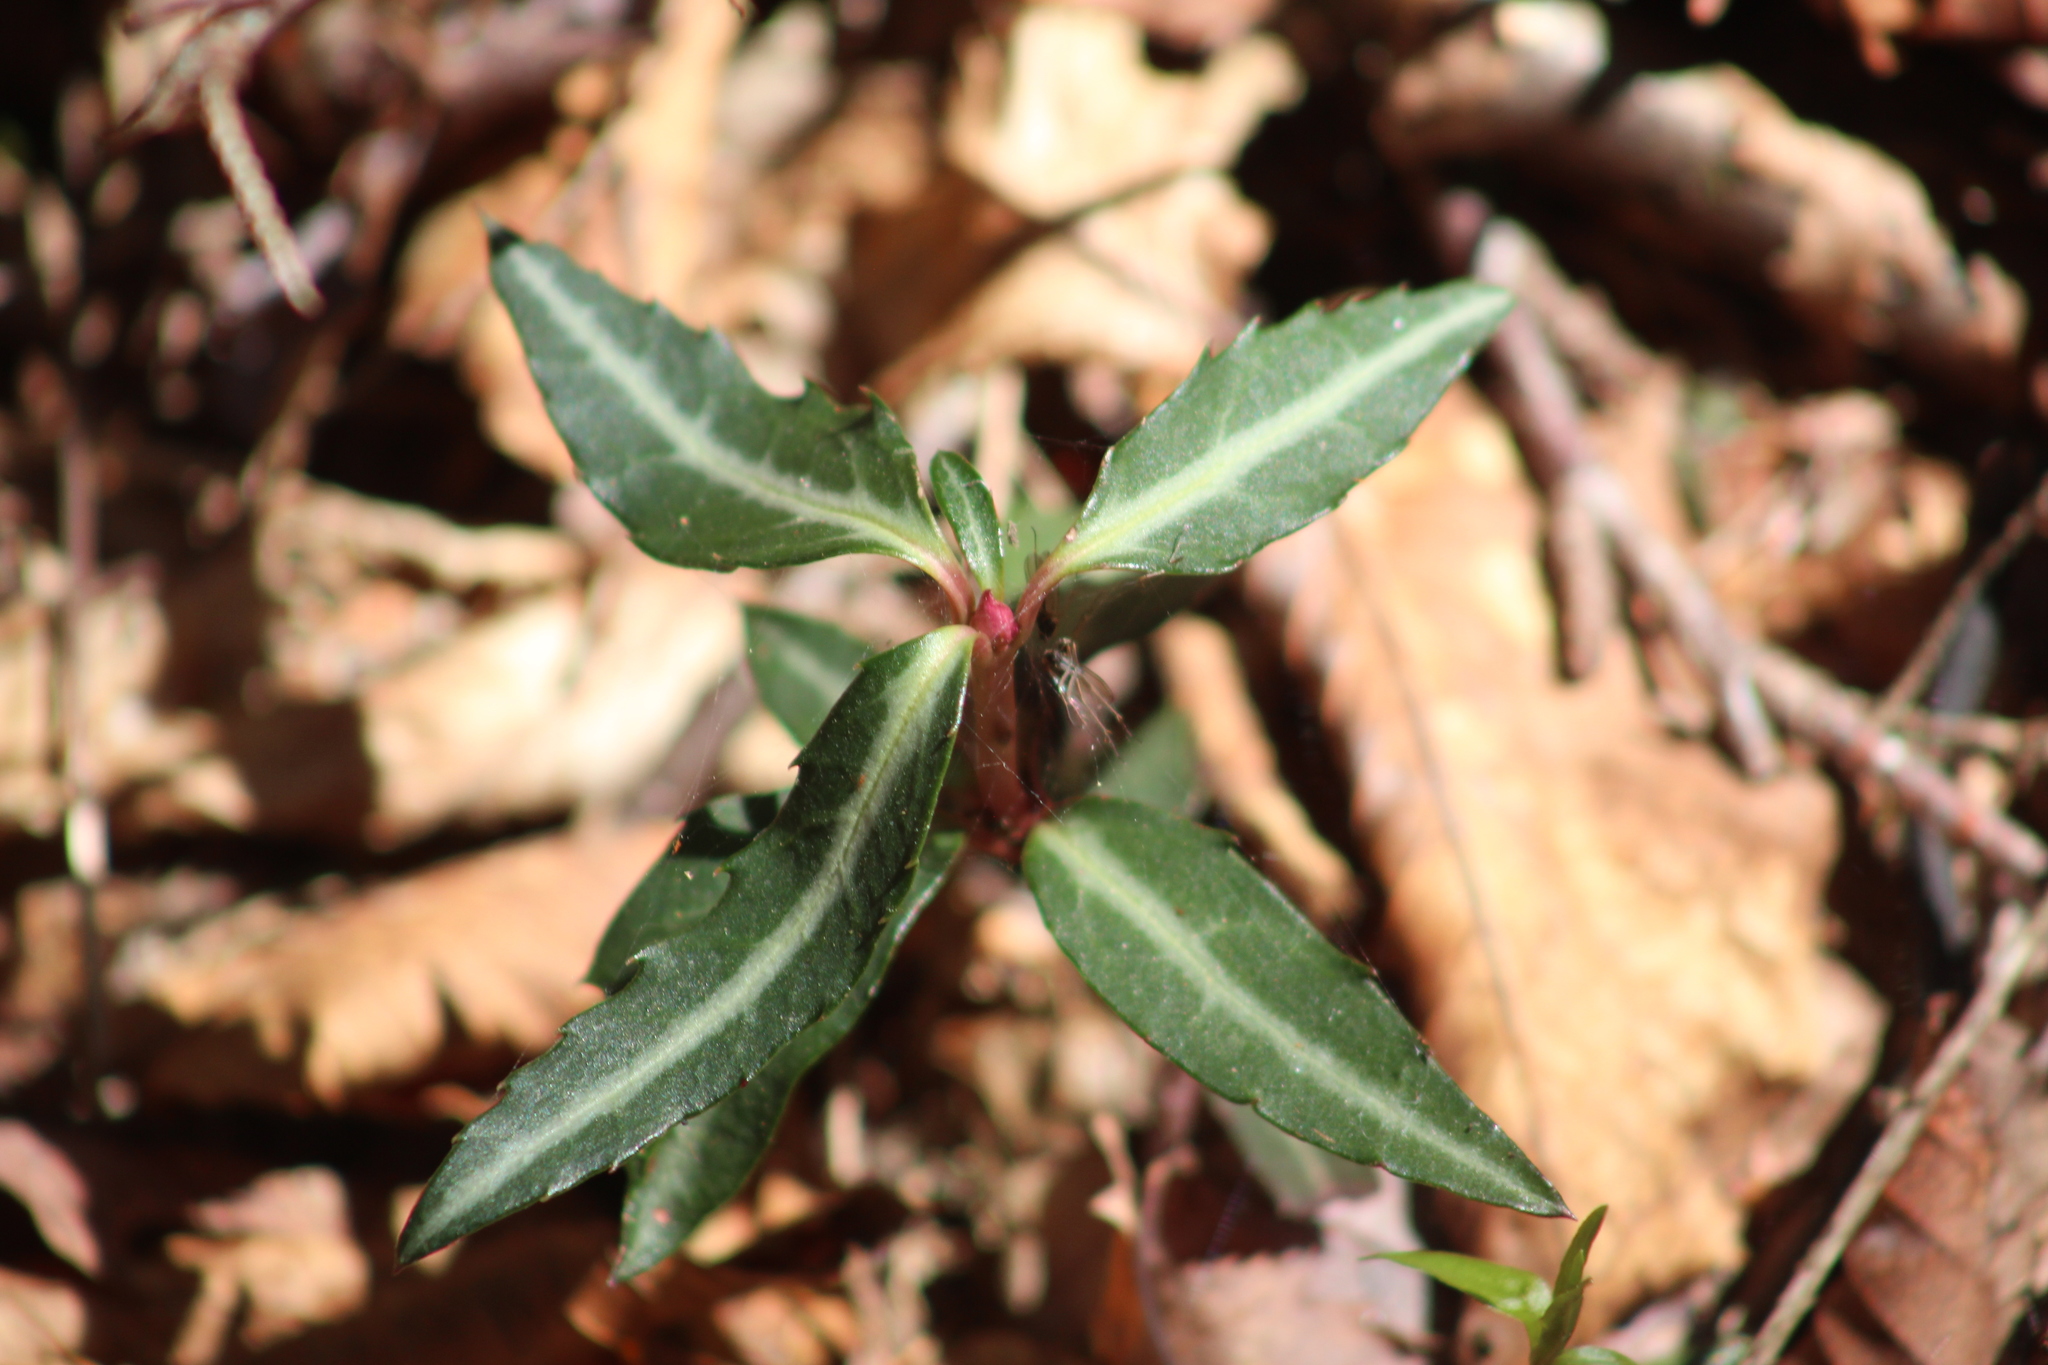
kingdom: Plantae
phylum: Tracheophyta
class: Magnoliopsida
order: Ericales
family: Ericaceae
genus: Chimaphila
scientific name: Chimaphila maculata
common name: Spotted pipsissewa
